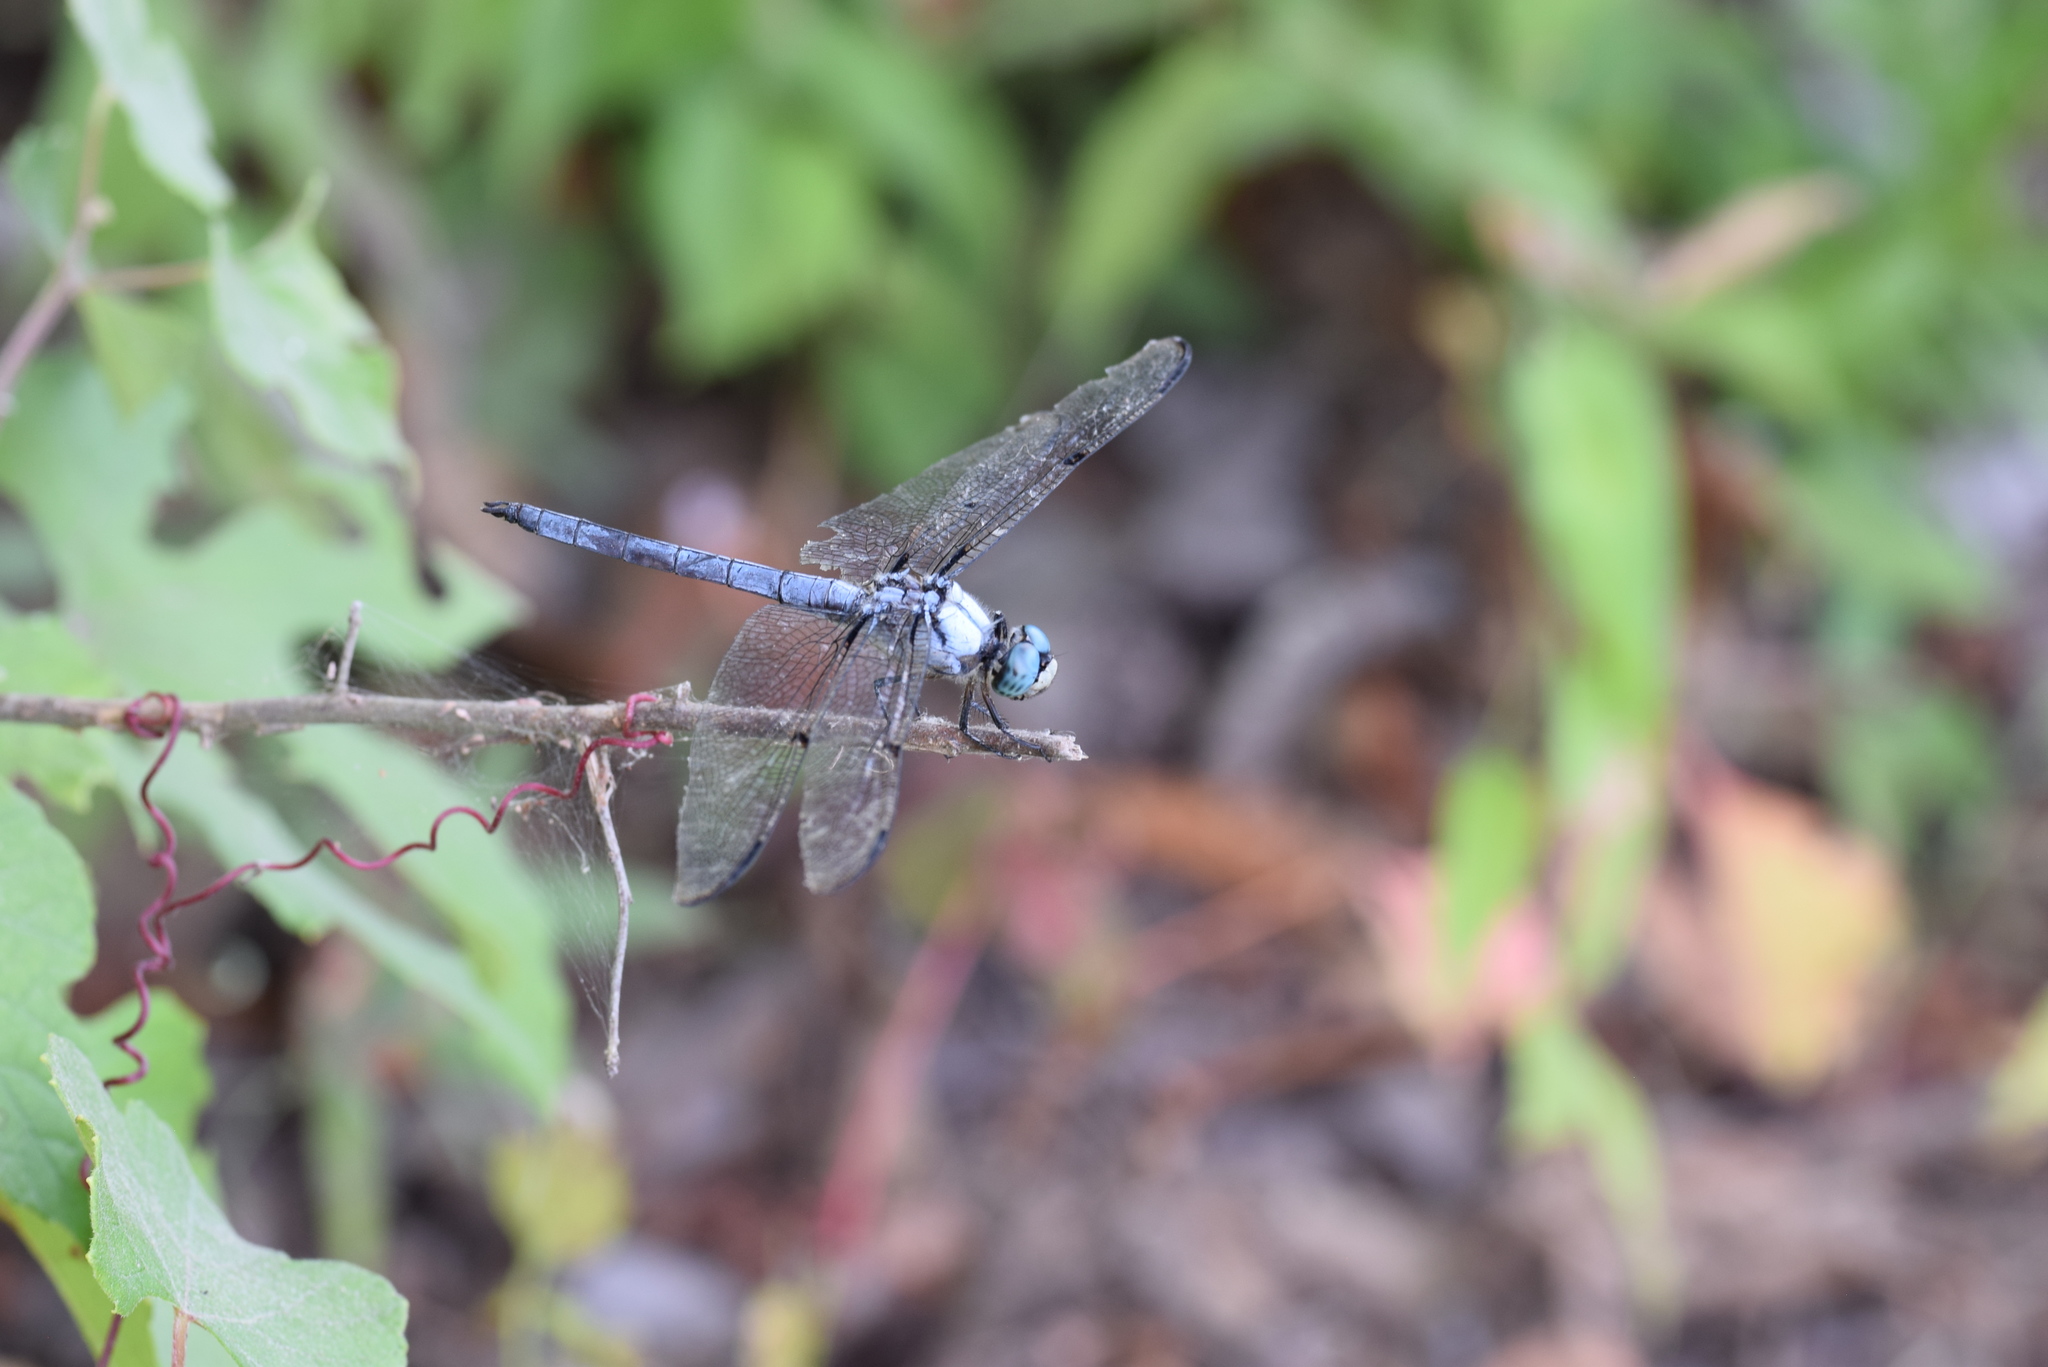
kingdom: Animalia
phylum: Arthropoda
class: Insecta
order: Odonata
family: Libellulidae
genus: Libellula
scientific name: Libellula vibrans
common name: Great blue skimmer
